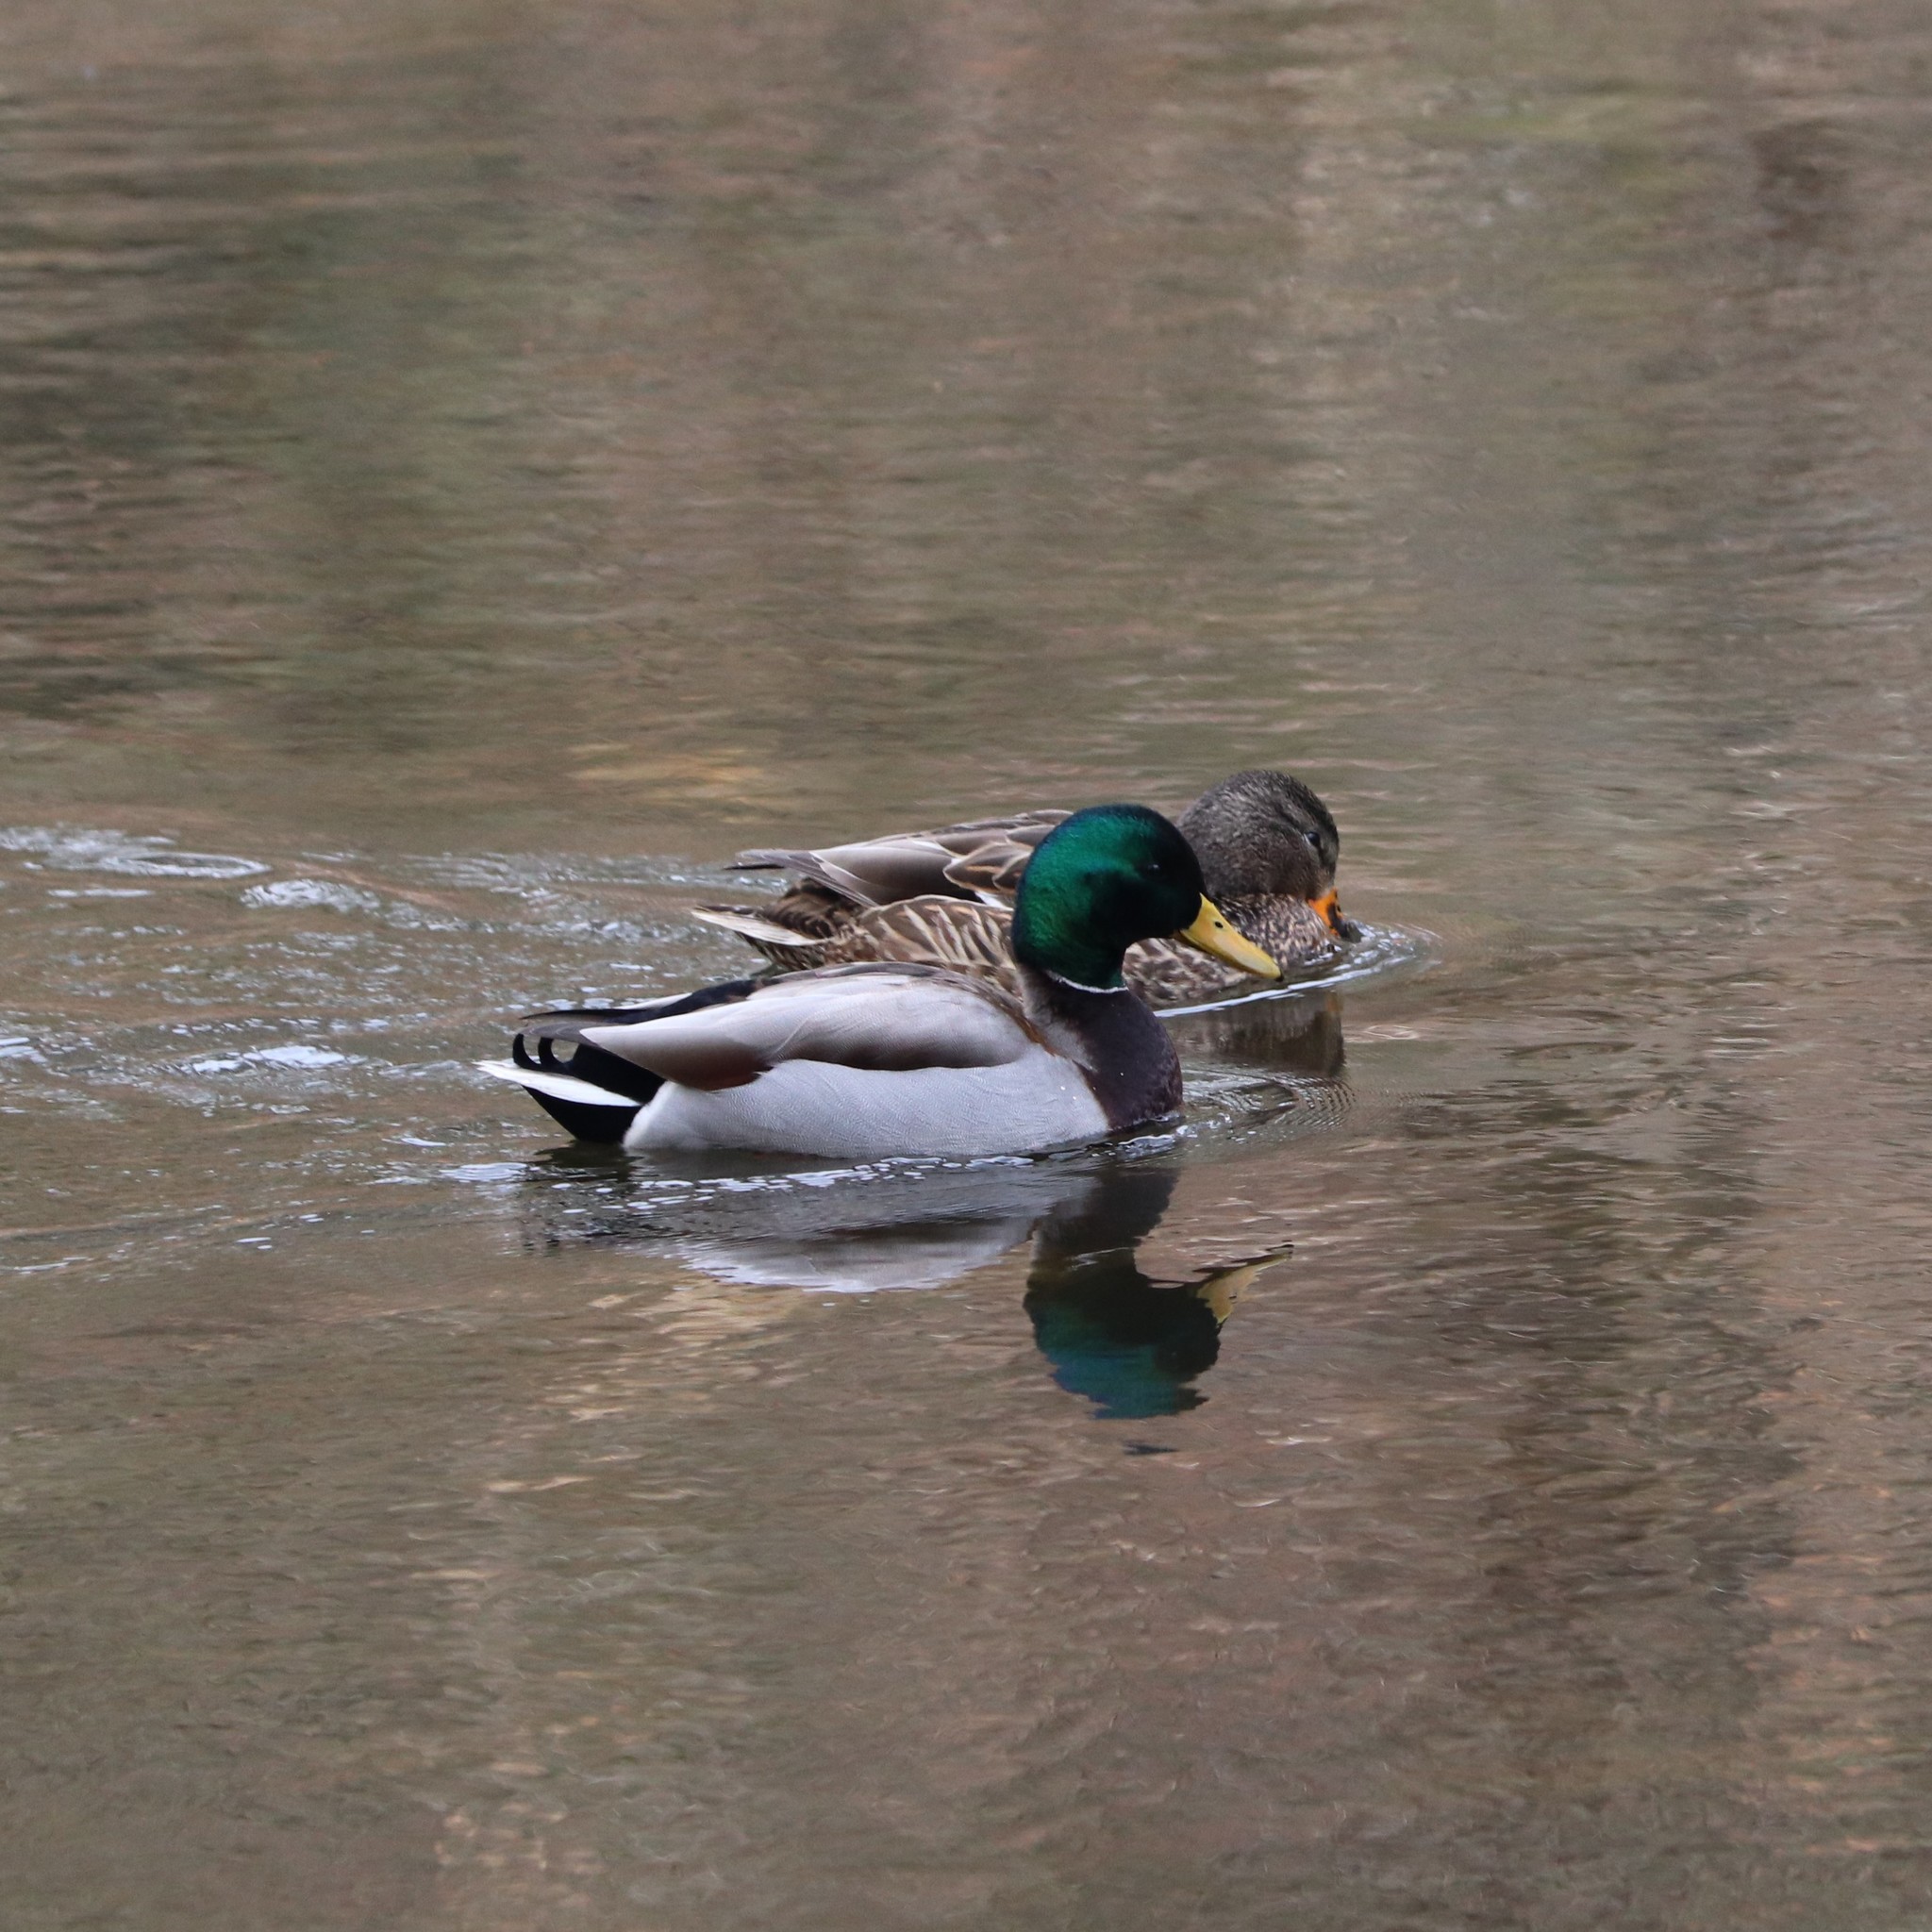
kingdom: Animalia
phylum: Chordata
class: Aves
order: Anseriformes
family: Anatidae
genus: Anas
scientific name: Anas platyrhynchos
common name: Mallard
